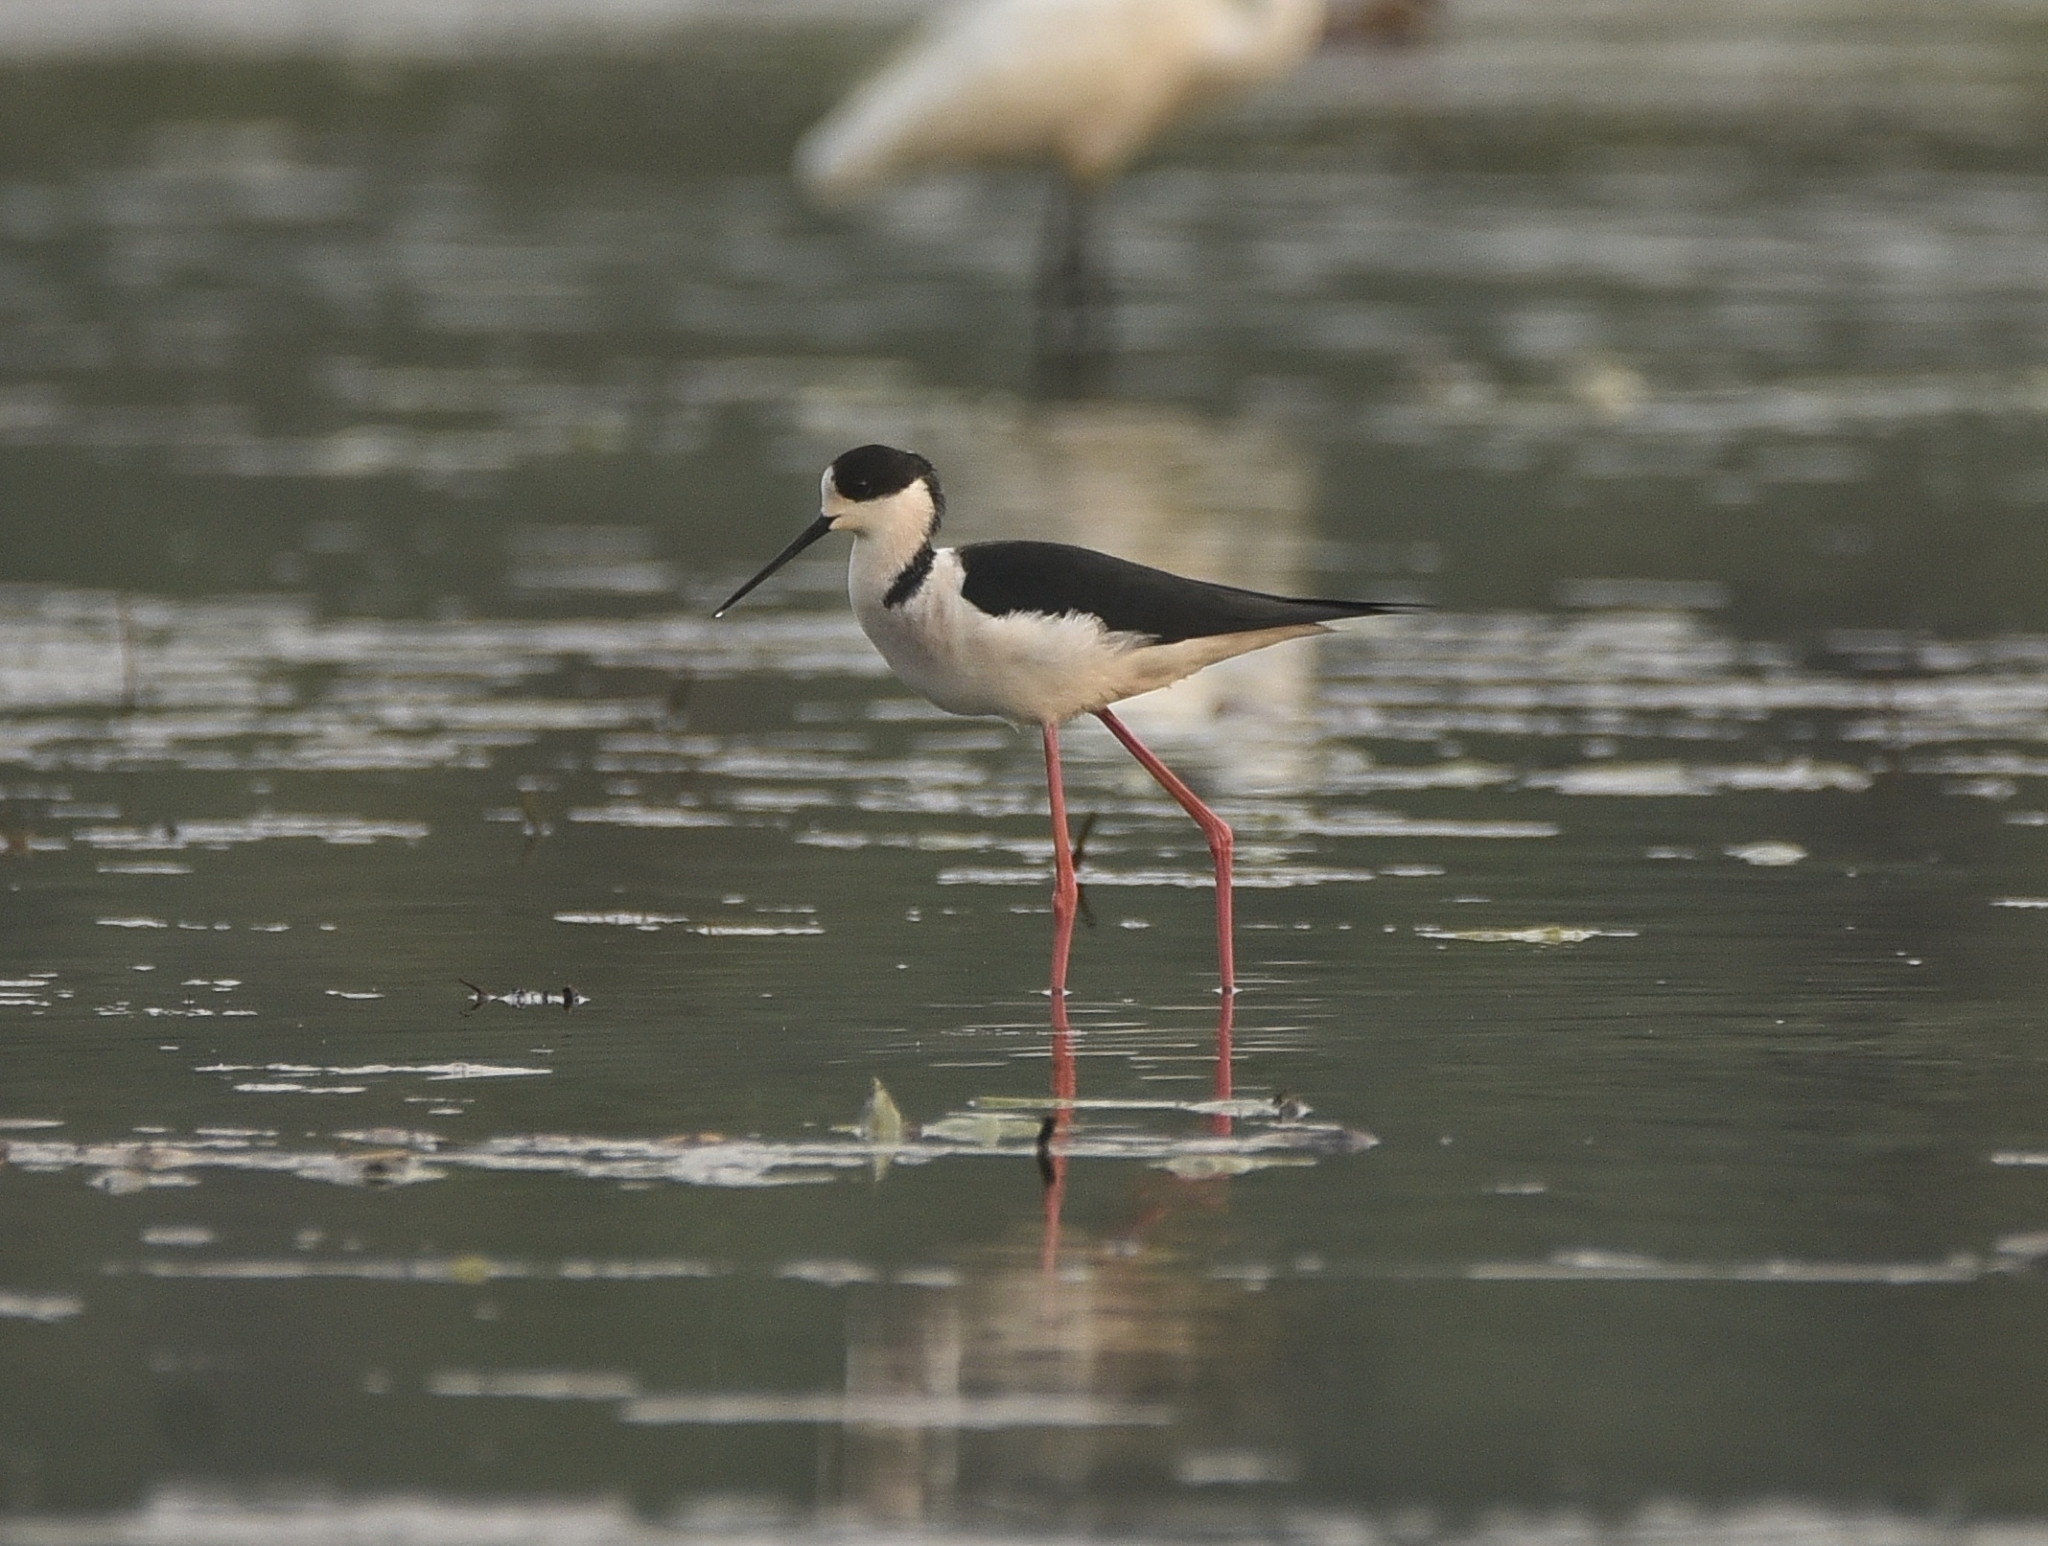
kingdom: Animalia
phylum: Chordata
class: Aves
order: Charadriiformes
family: Recurvirostridae
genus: Himantopus
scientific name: Himantopus himantopus
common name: Black-winged stilt
